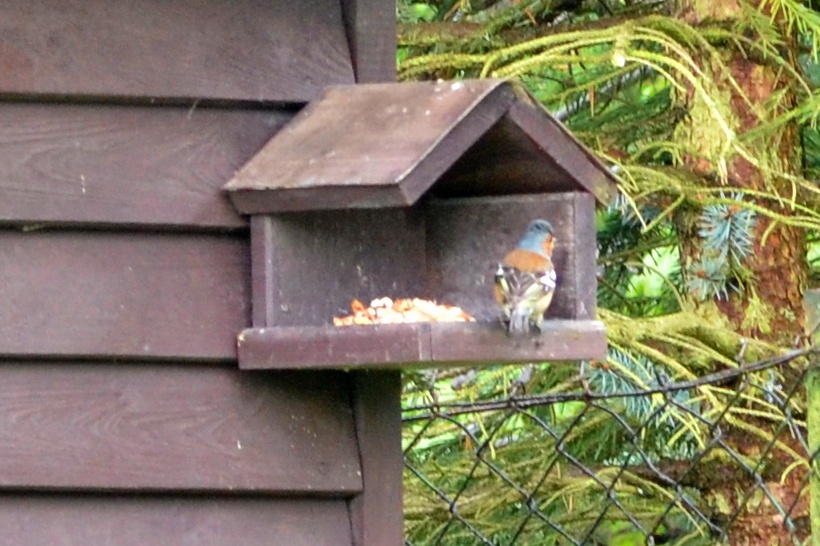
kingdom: Animalia
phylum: Chordata
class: Aves
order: Passeriformes
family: Fringillidae
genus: Fringilla
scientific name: Fringilla coelebs
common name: Common chaffinch
